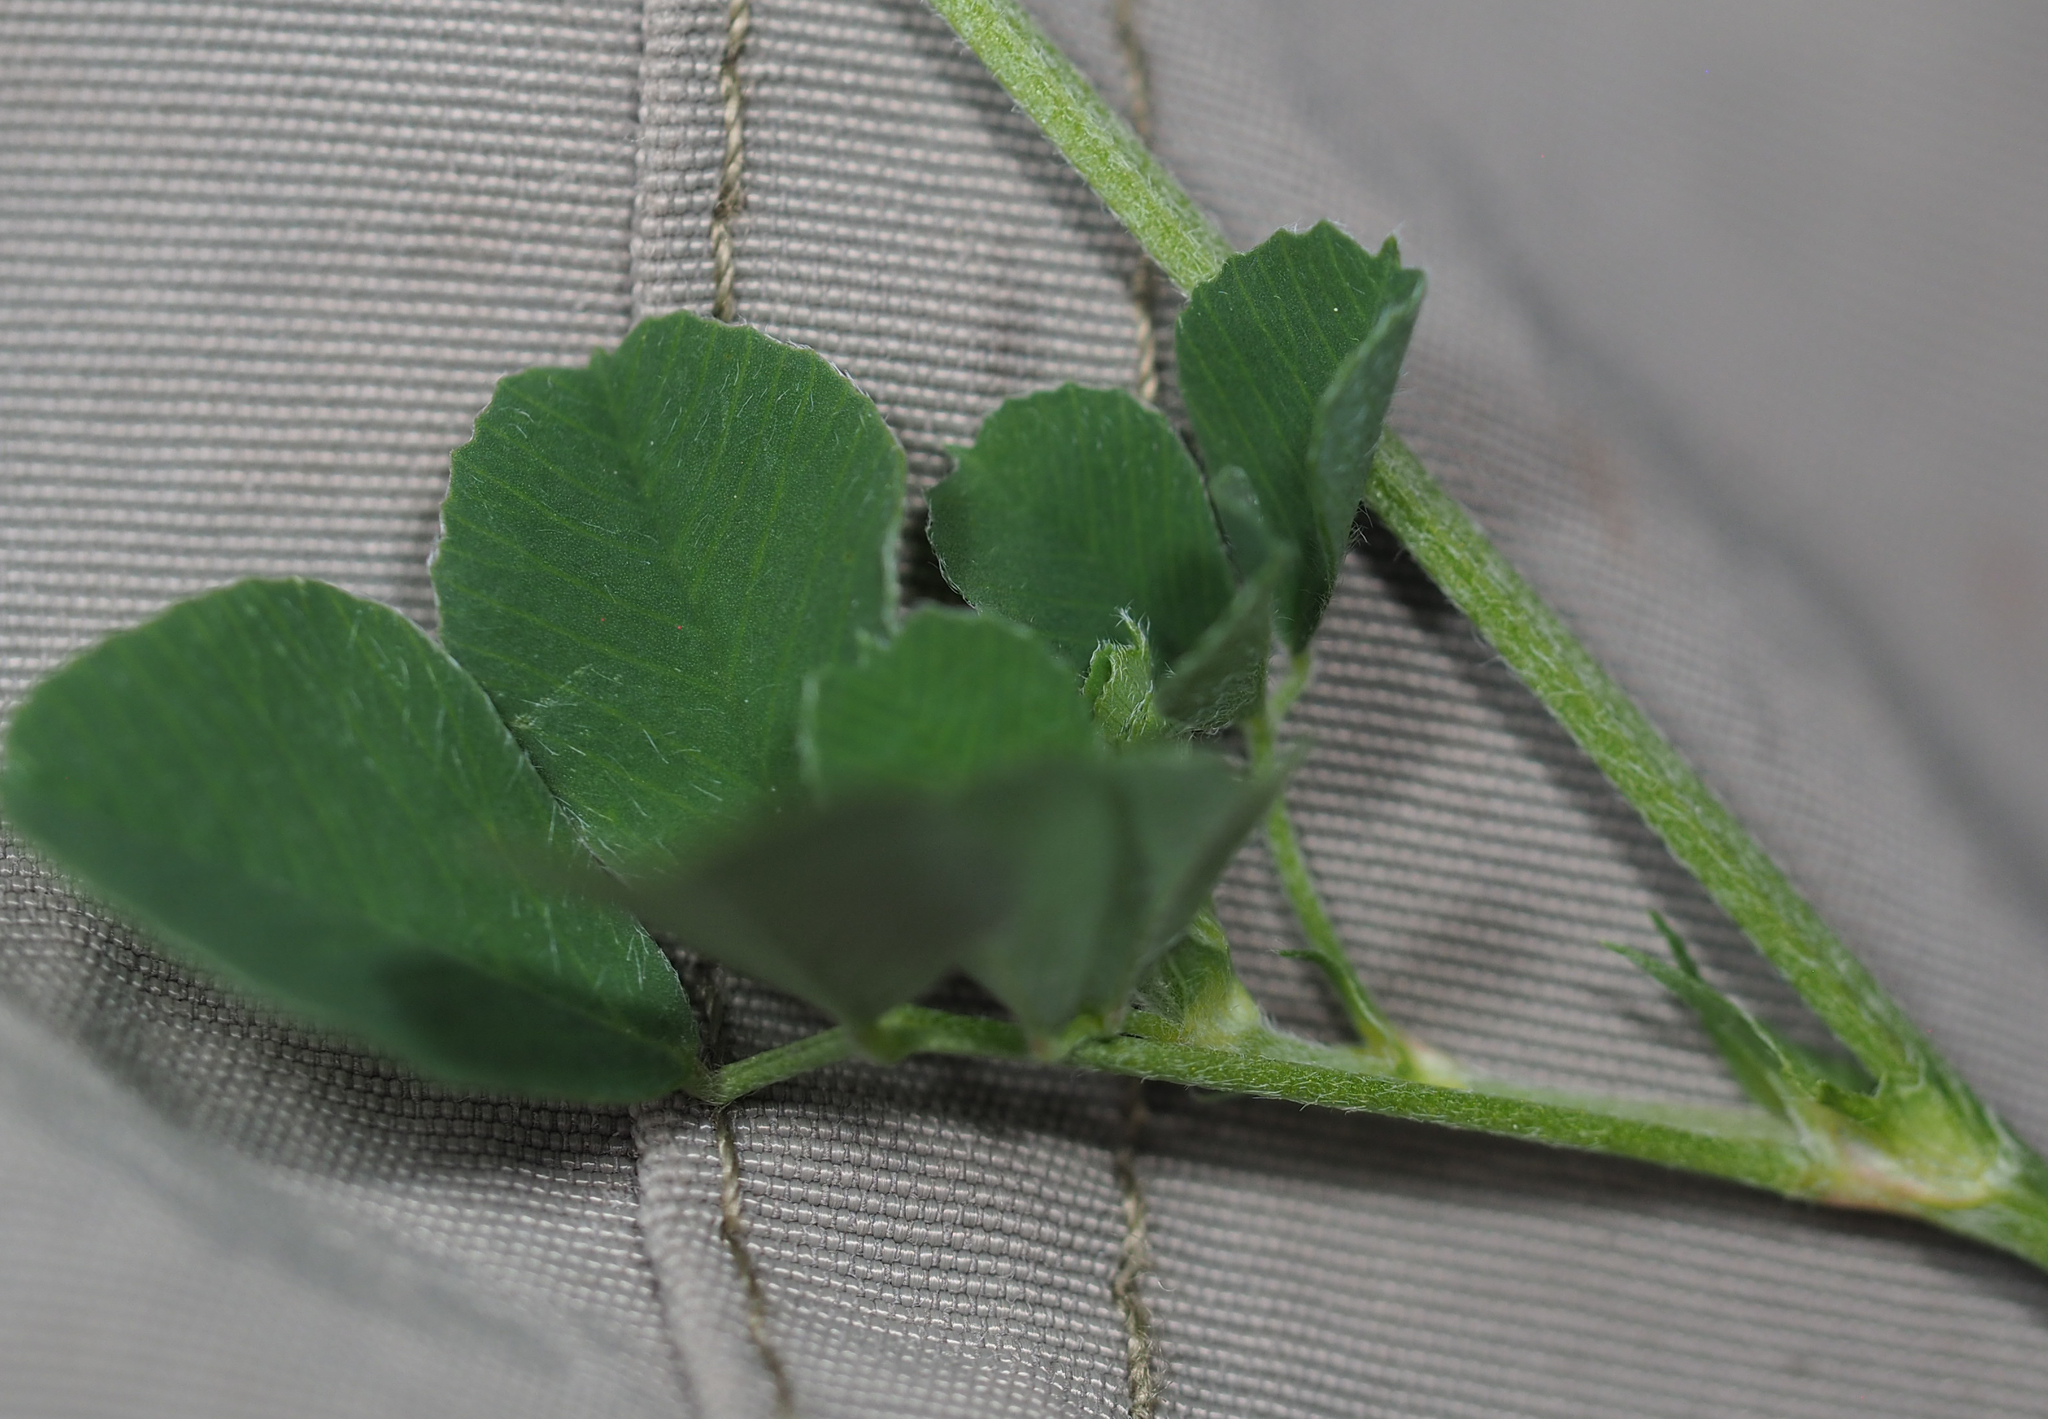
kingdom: Plantae
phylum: Tracheophyta
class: Magnoliopsida
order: Fabales
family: Fabaceae
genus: Medicago
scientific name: Medicago lupulina
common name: Black medick
